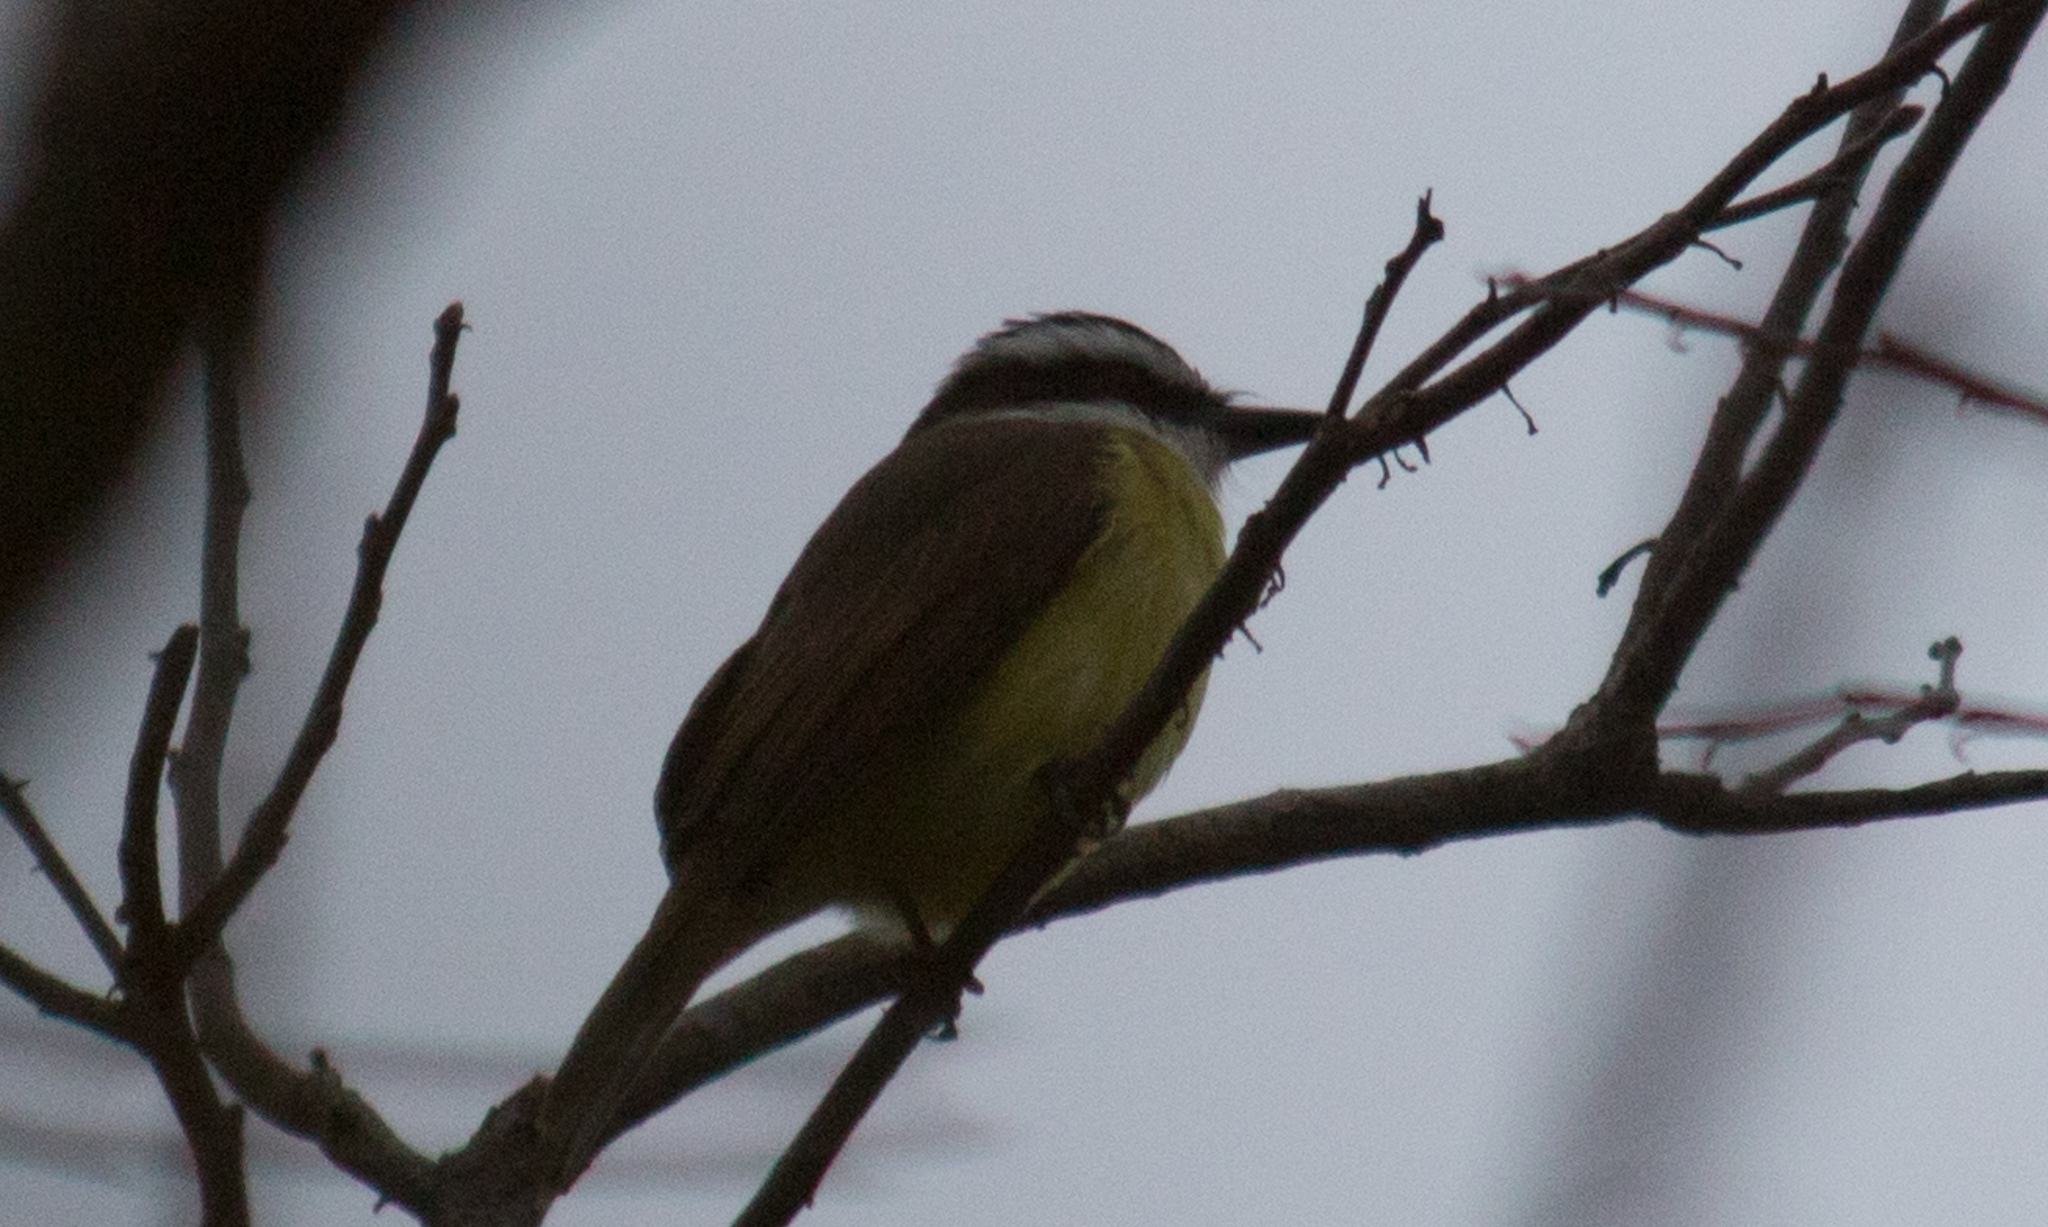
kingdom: Animalia
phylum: Chordata
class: Aves
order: Passeriformes
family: Tyrannidae
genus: Pitangus
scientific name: Pitangus sulphuratus
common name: Great kiskadee
